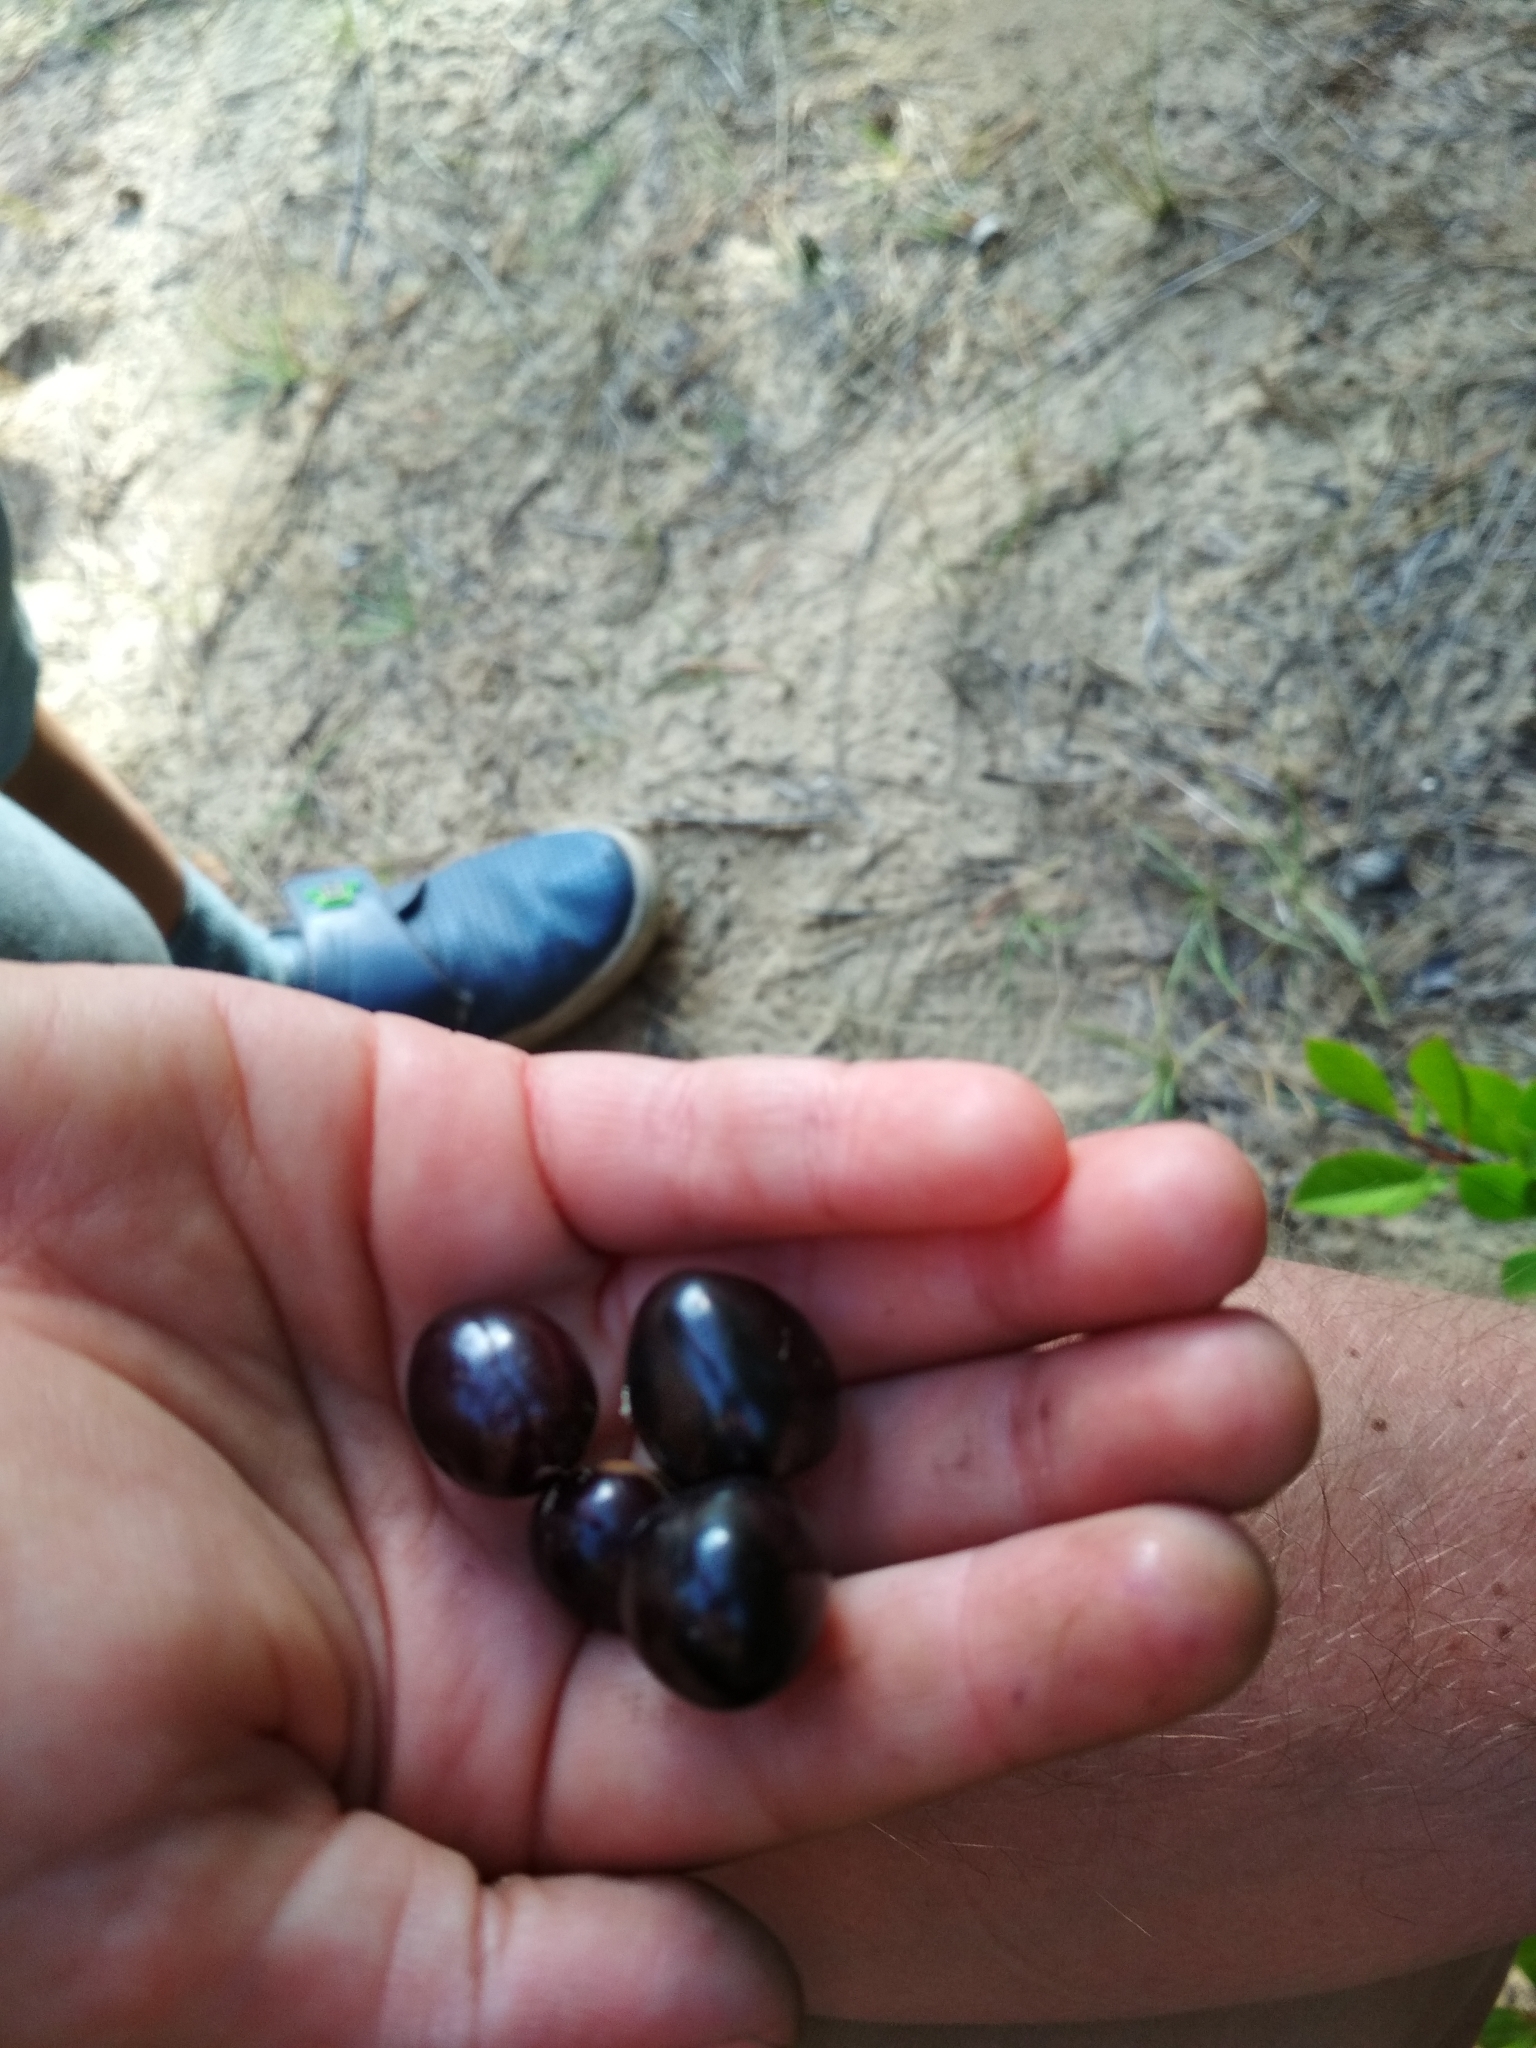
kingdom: Plantae
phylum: Tracheophyta
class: Magnoliopsida
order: Rosales
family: Rosaceae
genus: Prunus
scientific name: Prunus pumila
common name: Dwarf cherry
